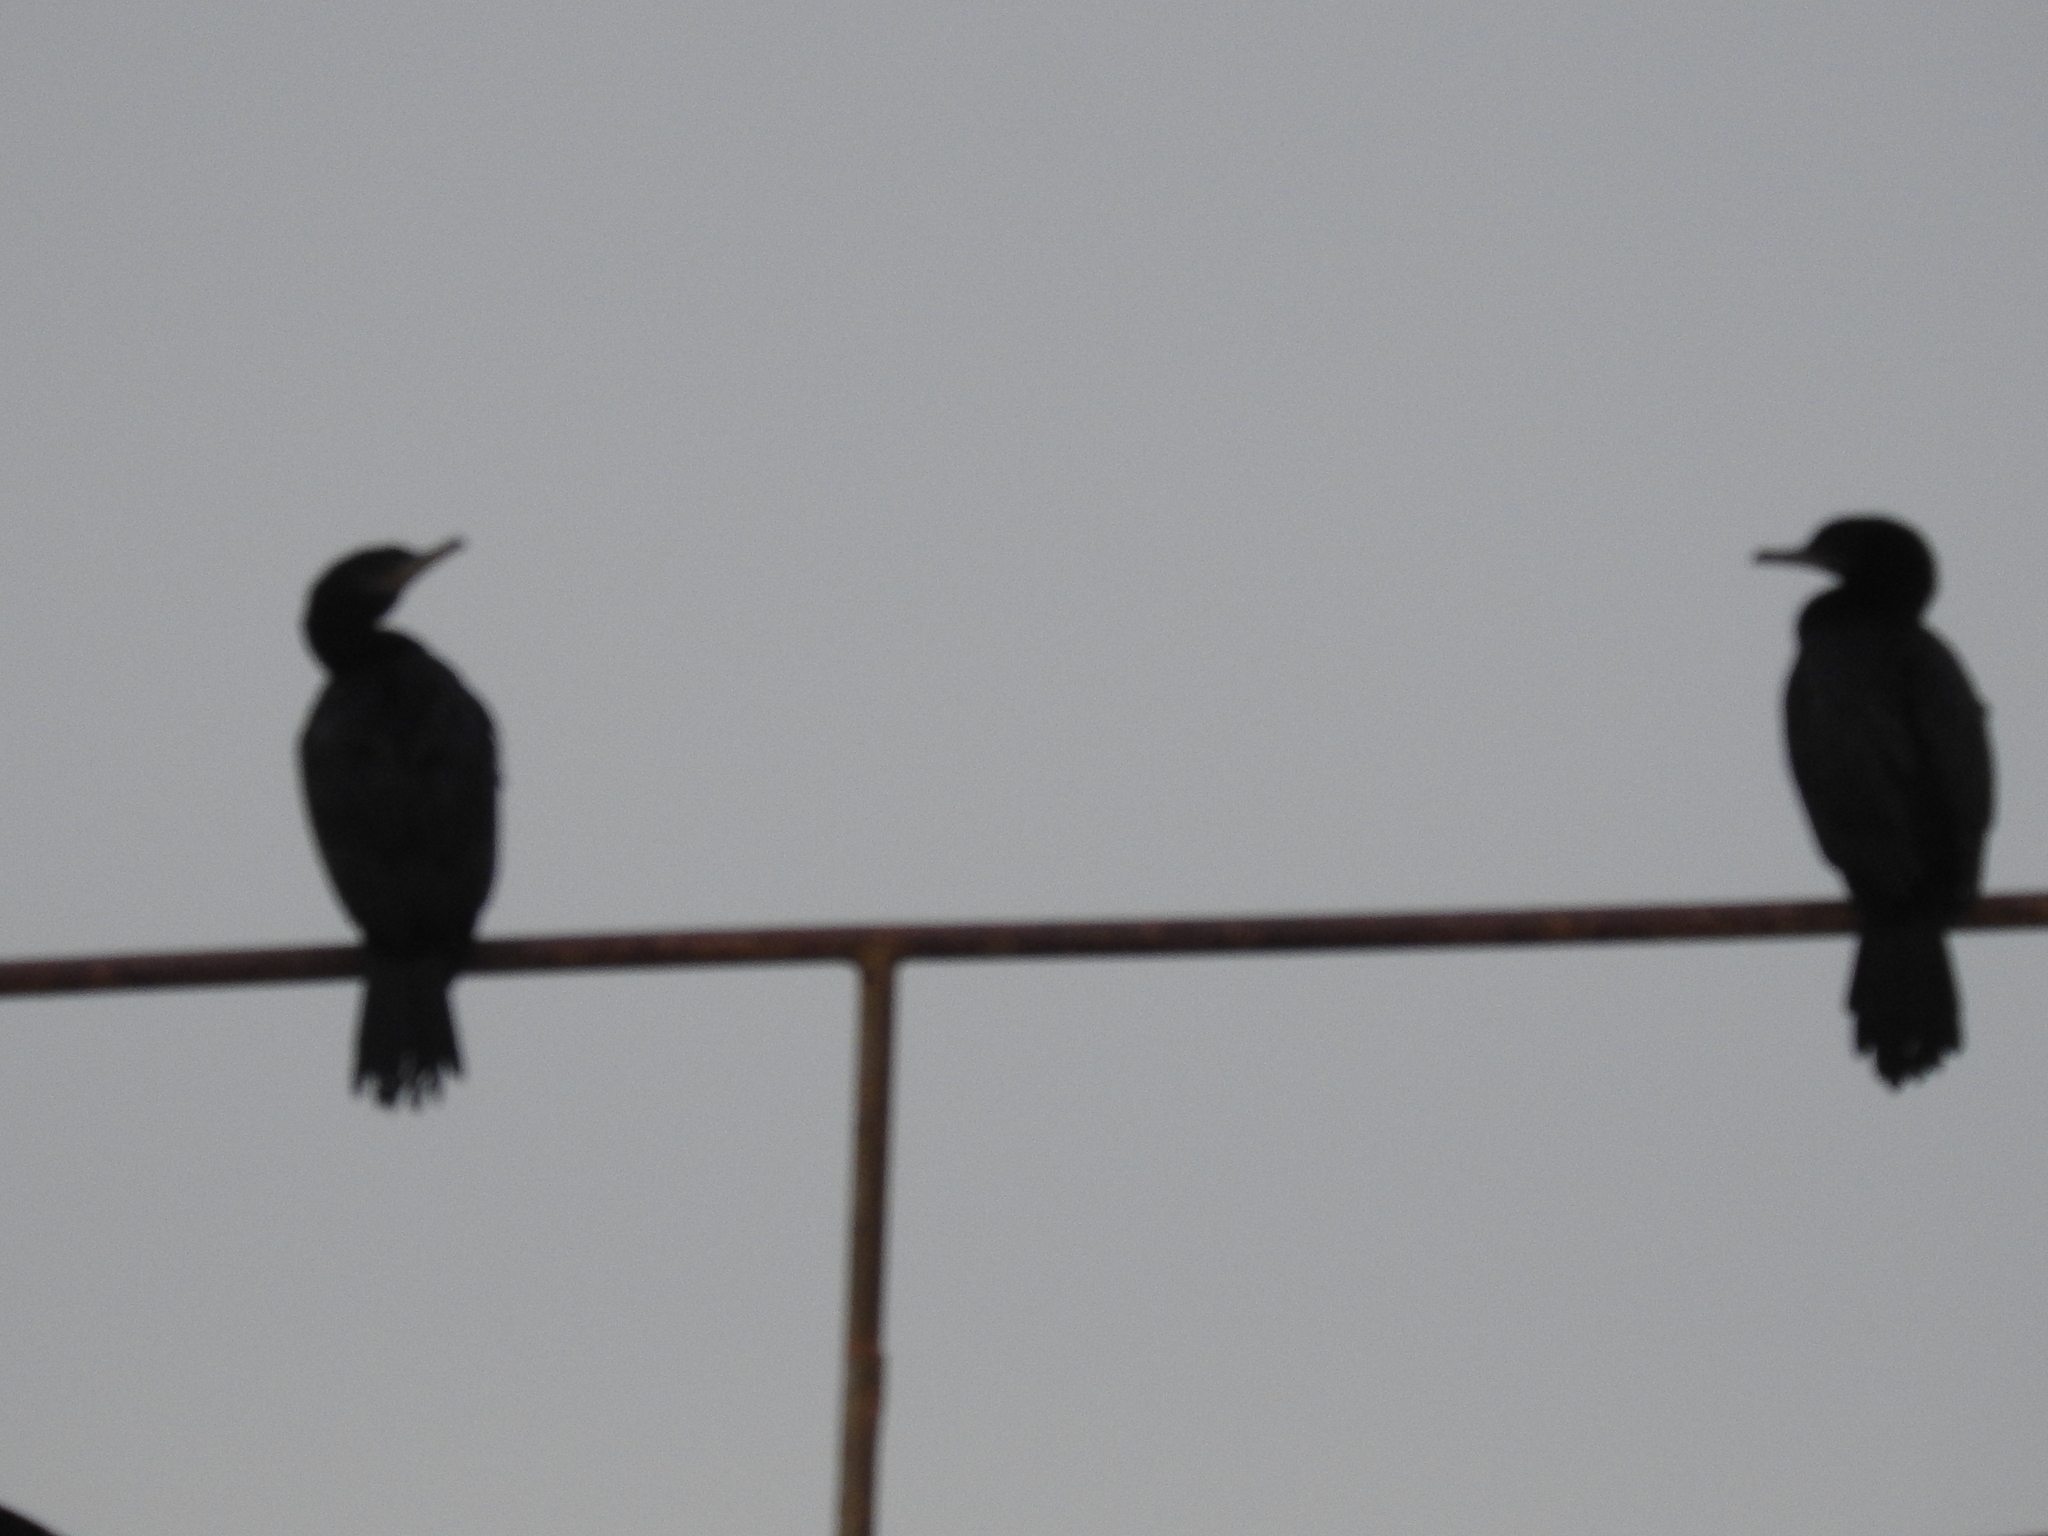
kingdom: Animalia
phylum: Chordata
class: Aves
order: Suliformes
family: Phalacrocoracidae
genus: Phalacrocorax
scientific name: Phalacrocorax brasilianus
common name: Neotropic cormorant
